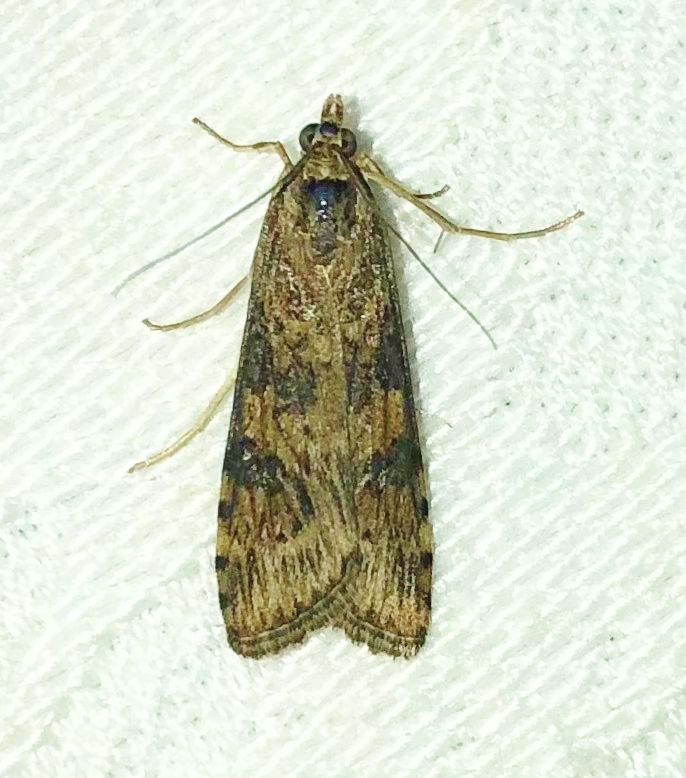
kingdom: Animalia
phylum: Arthropoda
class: Insecta
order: Lepidoptera
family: Crambidae
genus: Nomophila
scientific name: Nomophila nearctica
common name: American rush veneer
